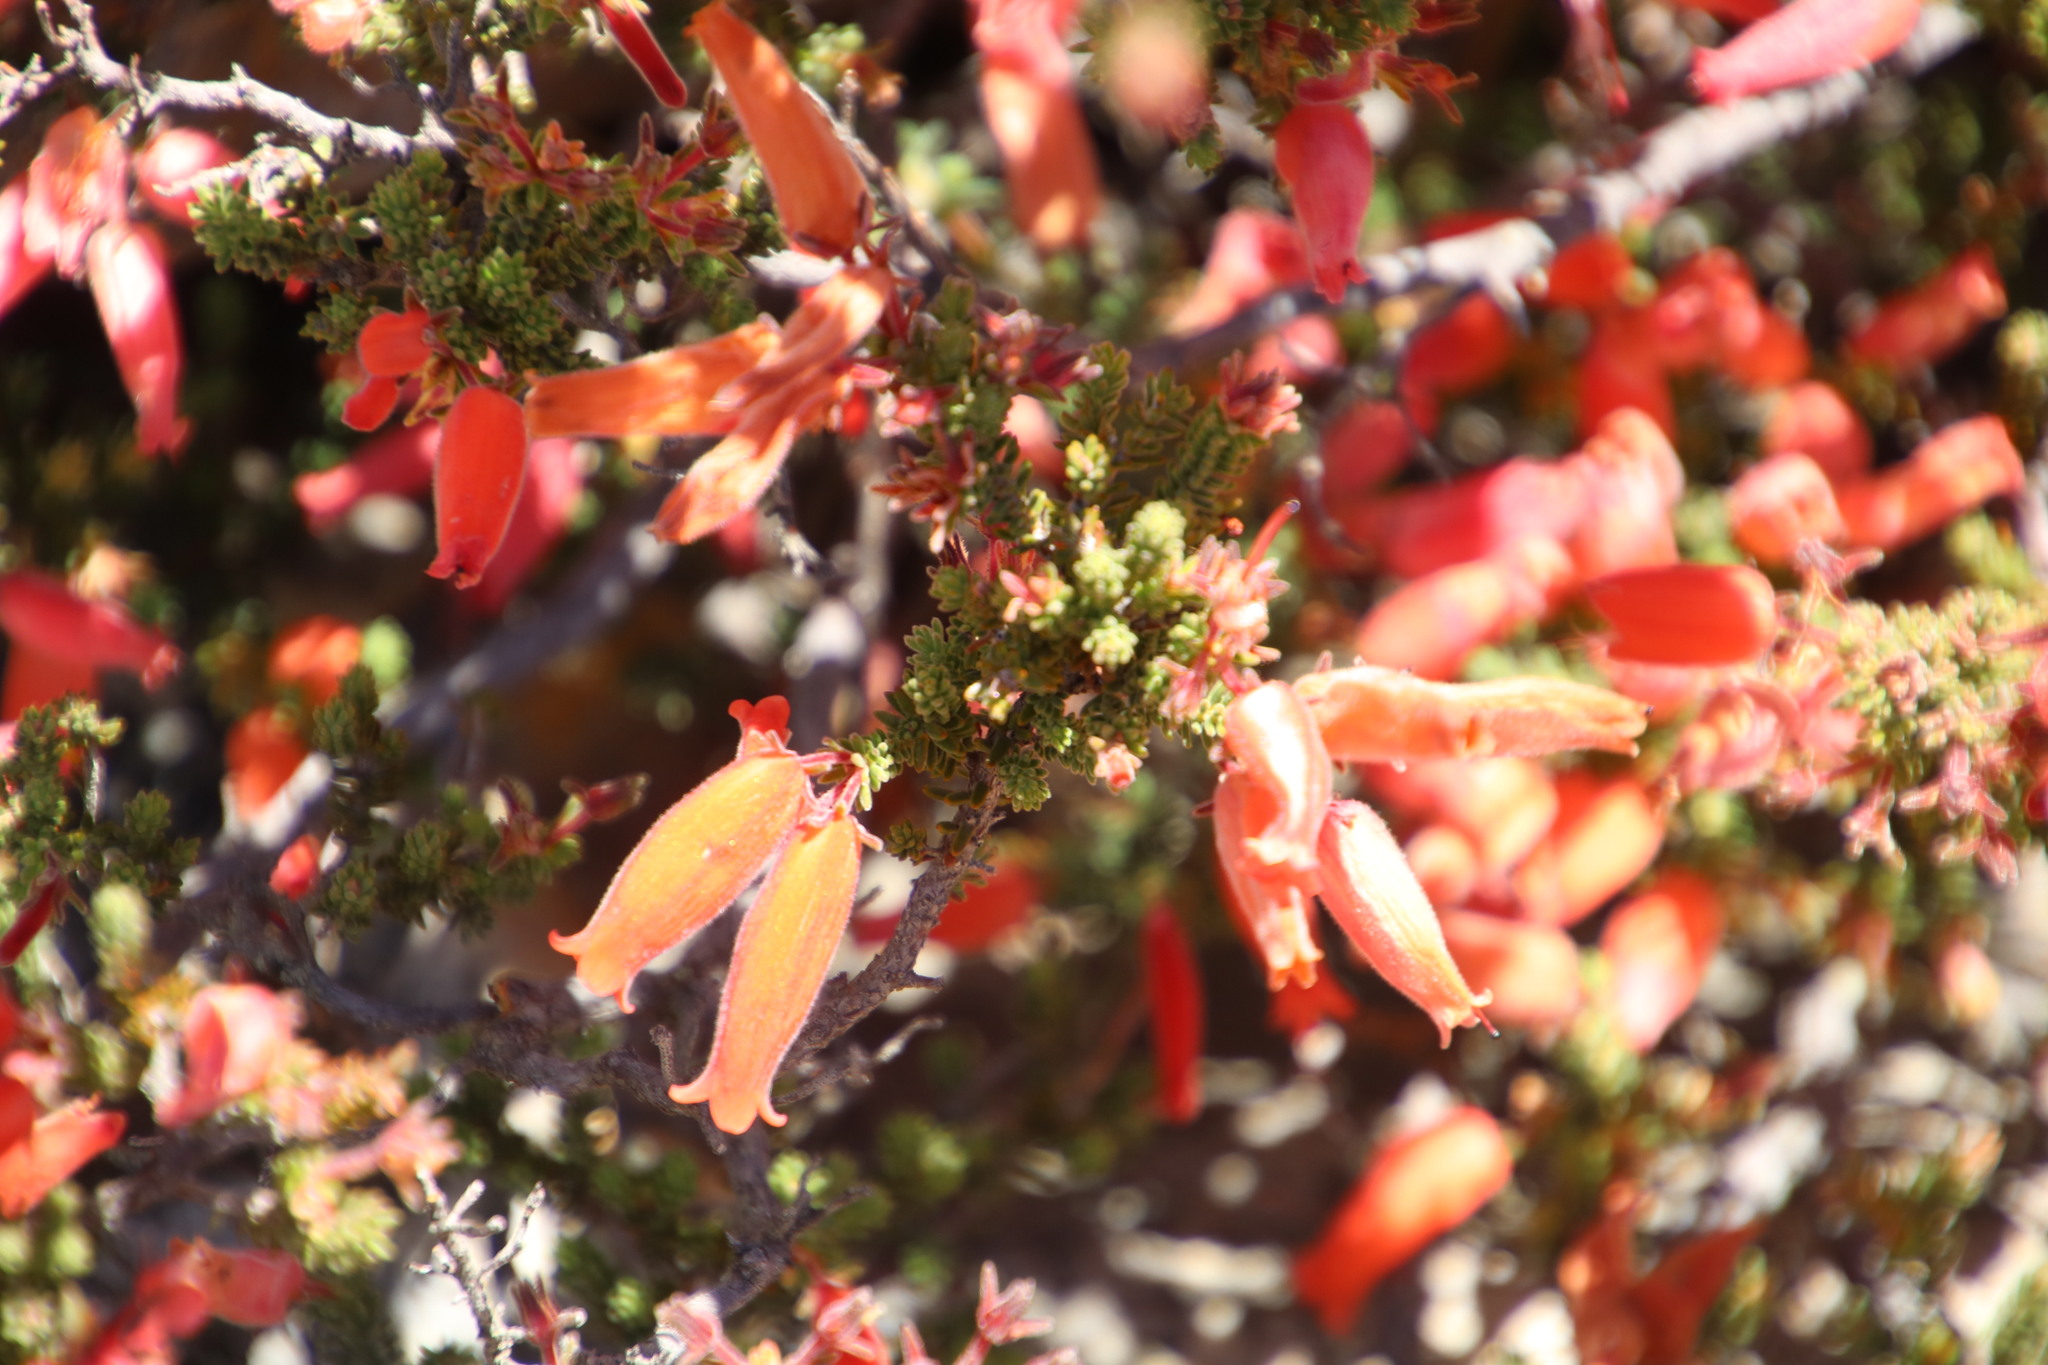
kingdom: Plantae
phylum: Tracheophyta
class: Magnoliopsida
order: Ericales
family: Ericaceae
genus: Erica
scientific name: Erica tumida
